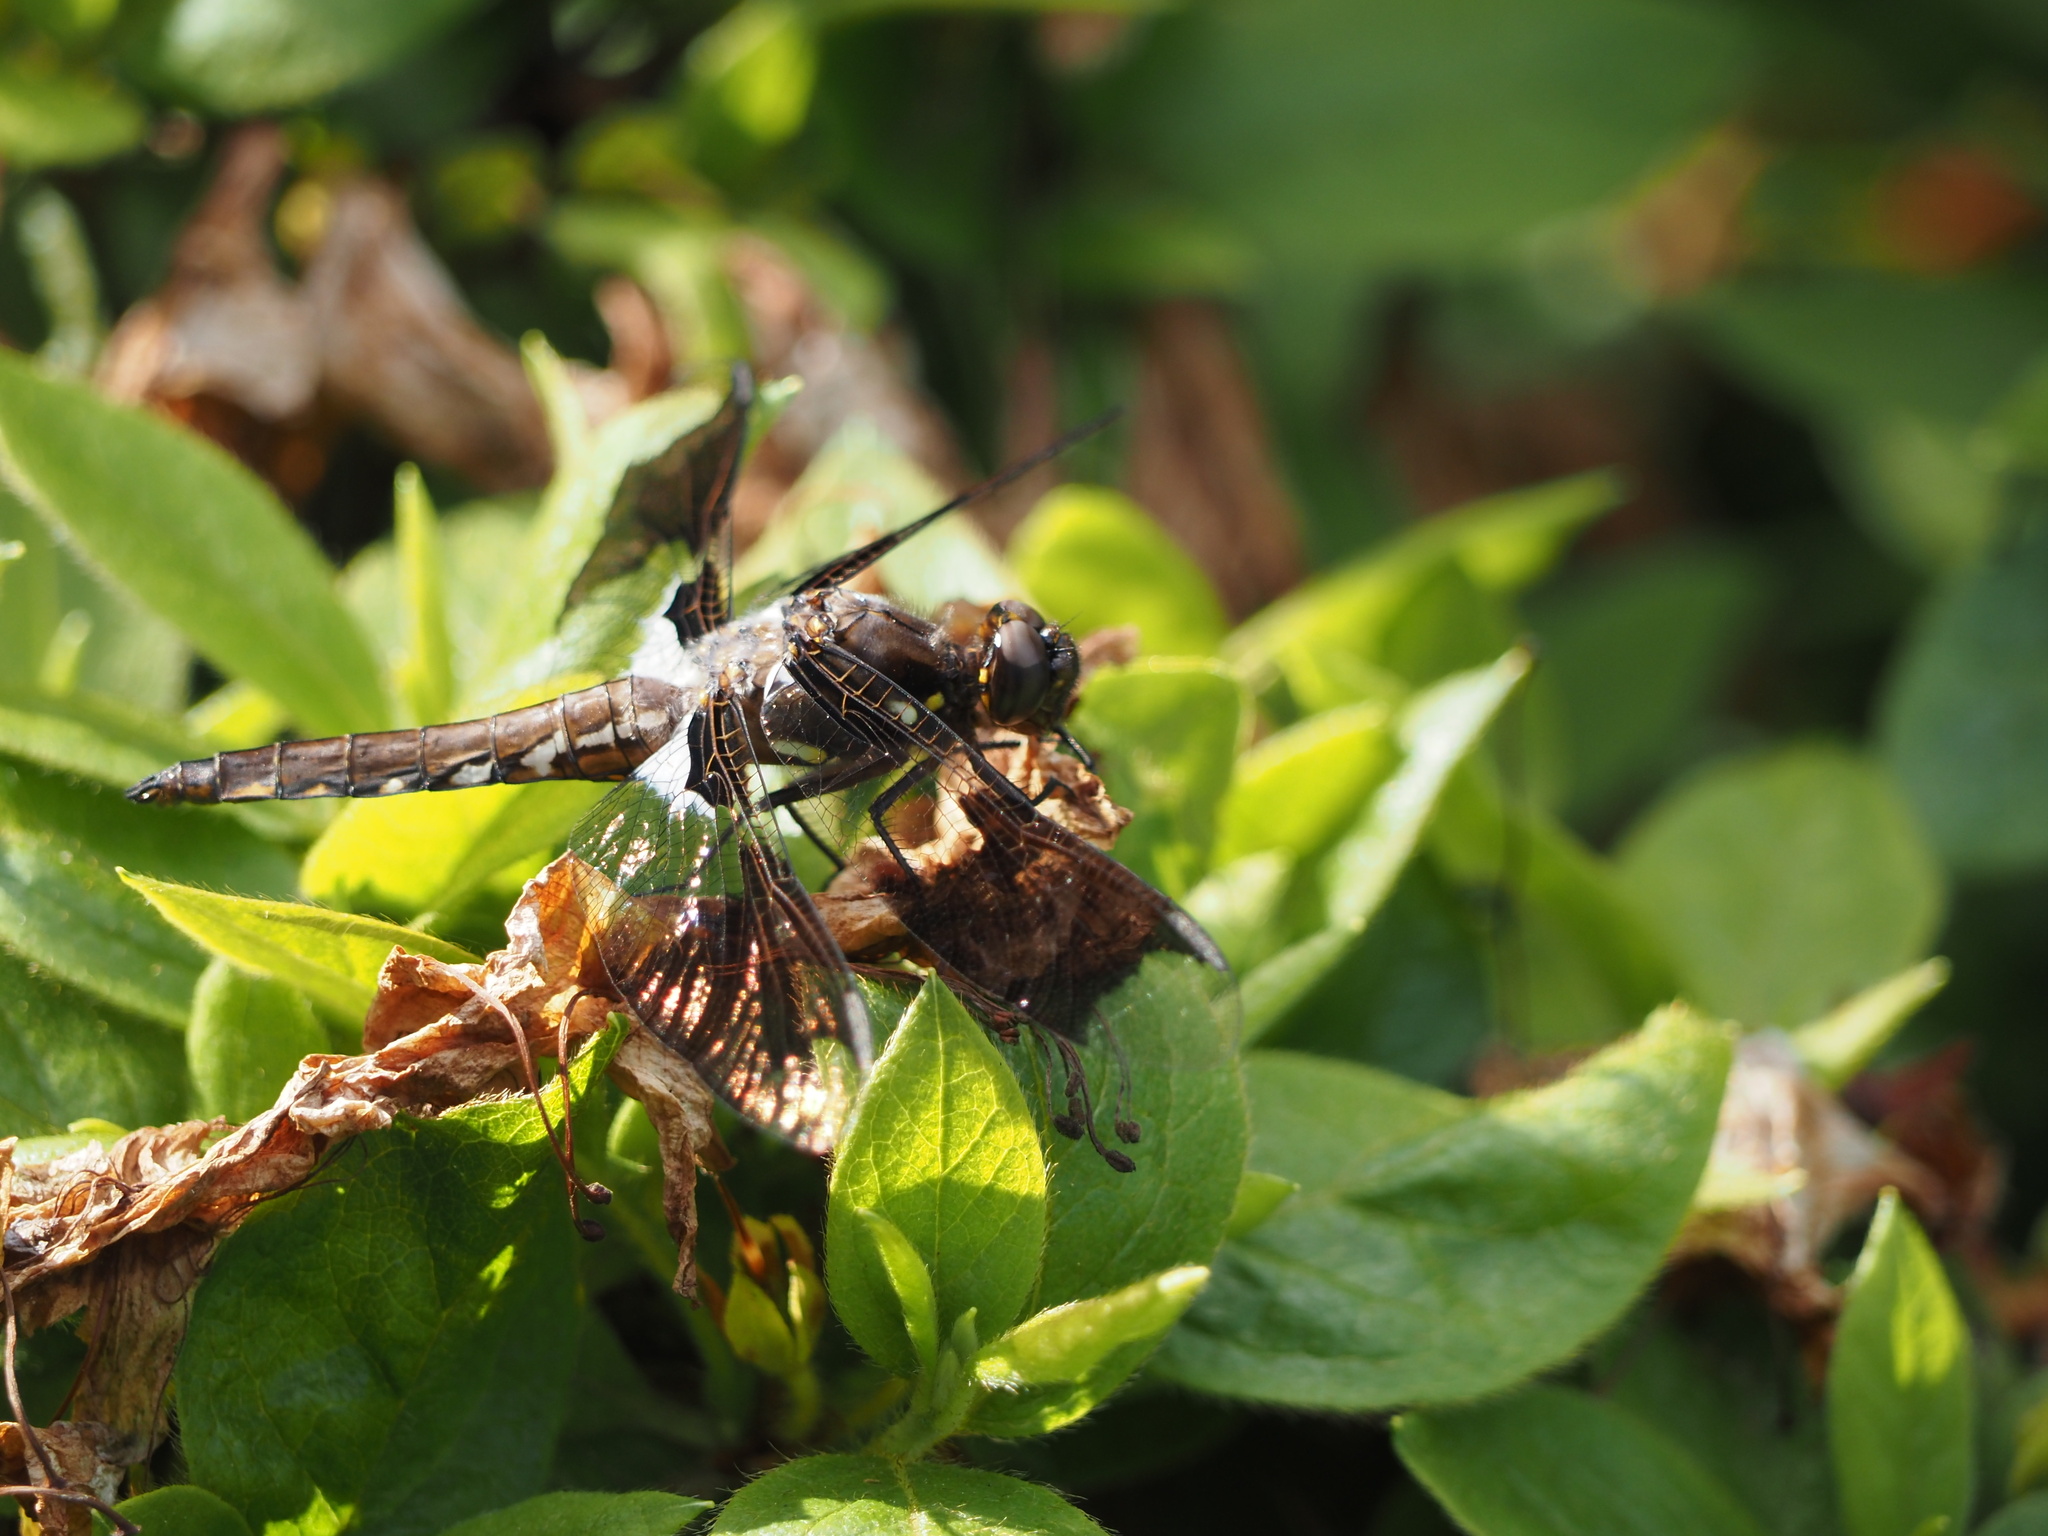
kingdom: Animalia
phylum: Arthropoda
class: Insecta
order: Odonata
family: Libellulidae
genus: Plathemis
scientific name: Plathemis lydia
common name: Common whitetail
